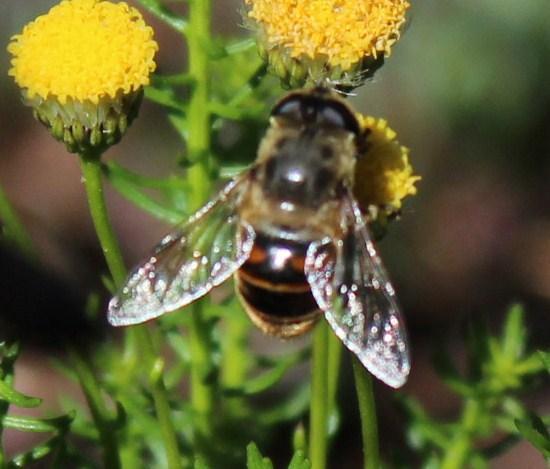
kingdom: Animalia
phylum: Arthropoda
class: Insecta
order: Diptera
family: Syrphidae
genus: Eristalis
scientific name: Eristalis tenax
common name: Drone fly
